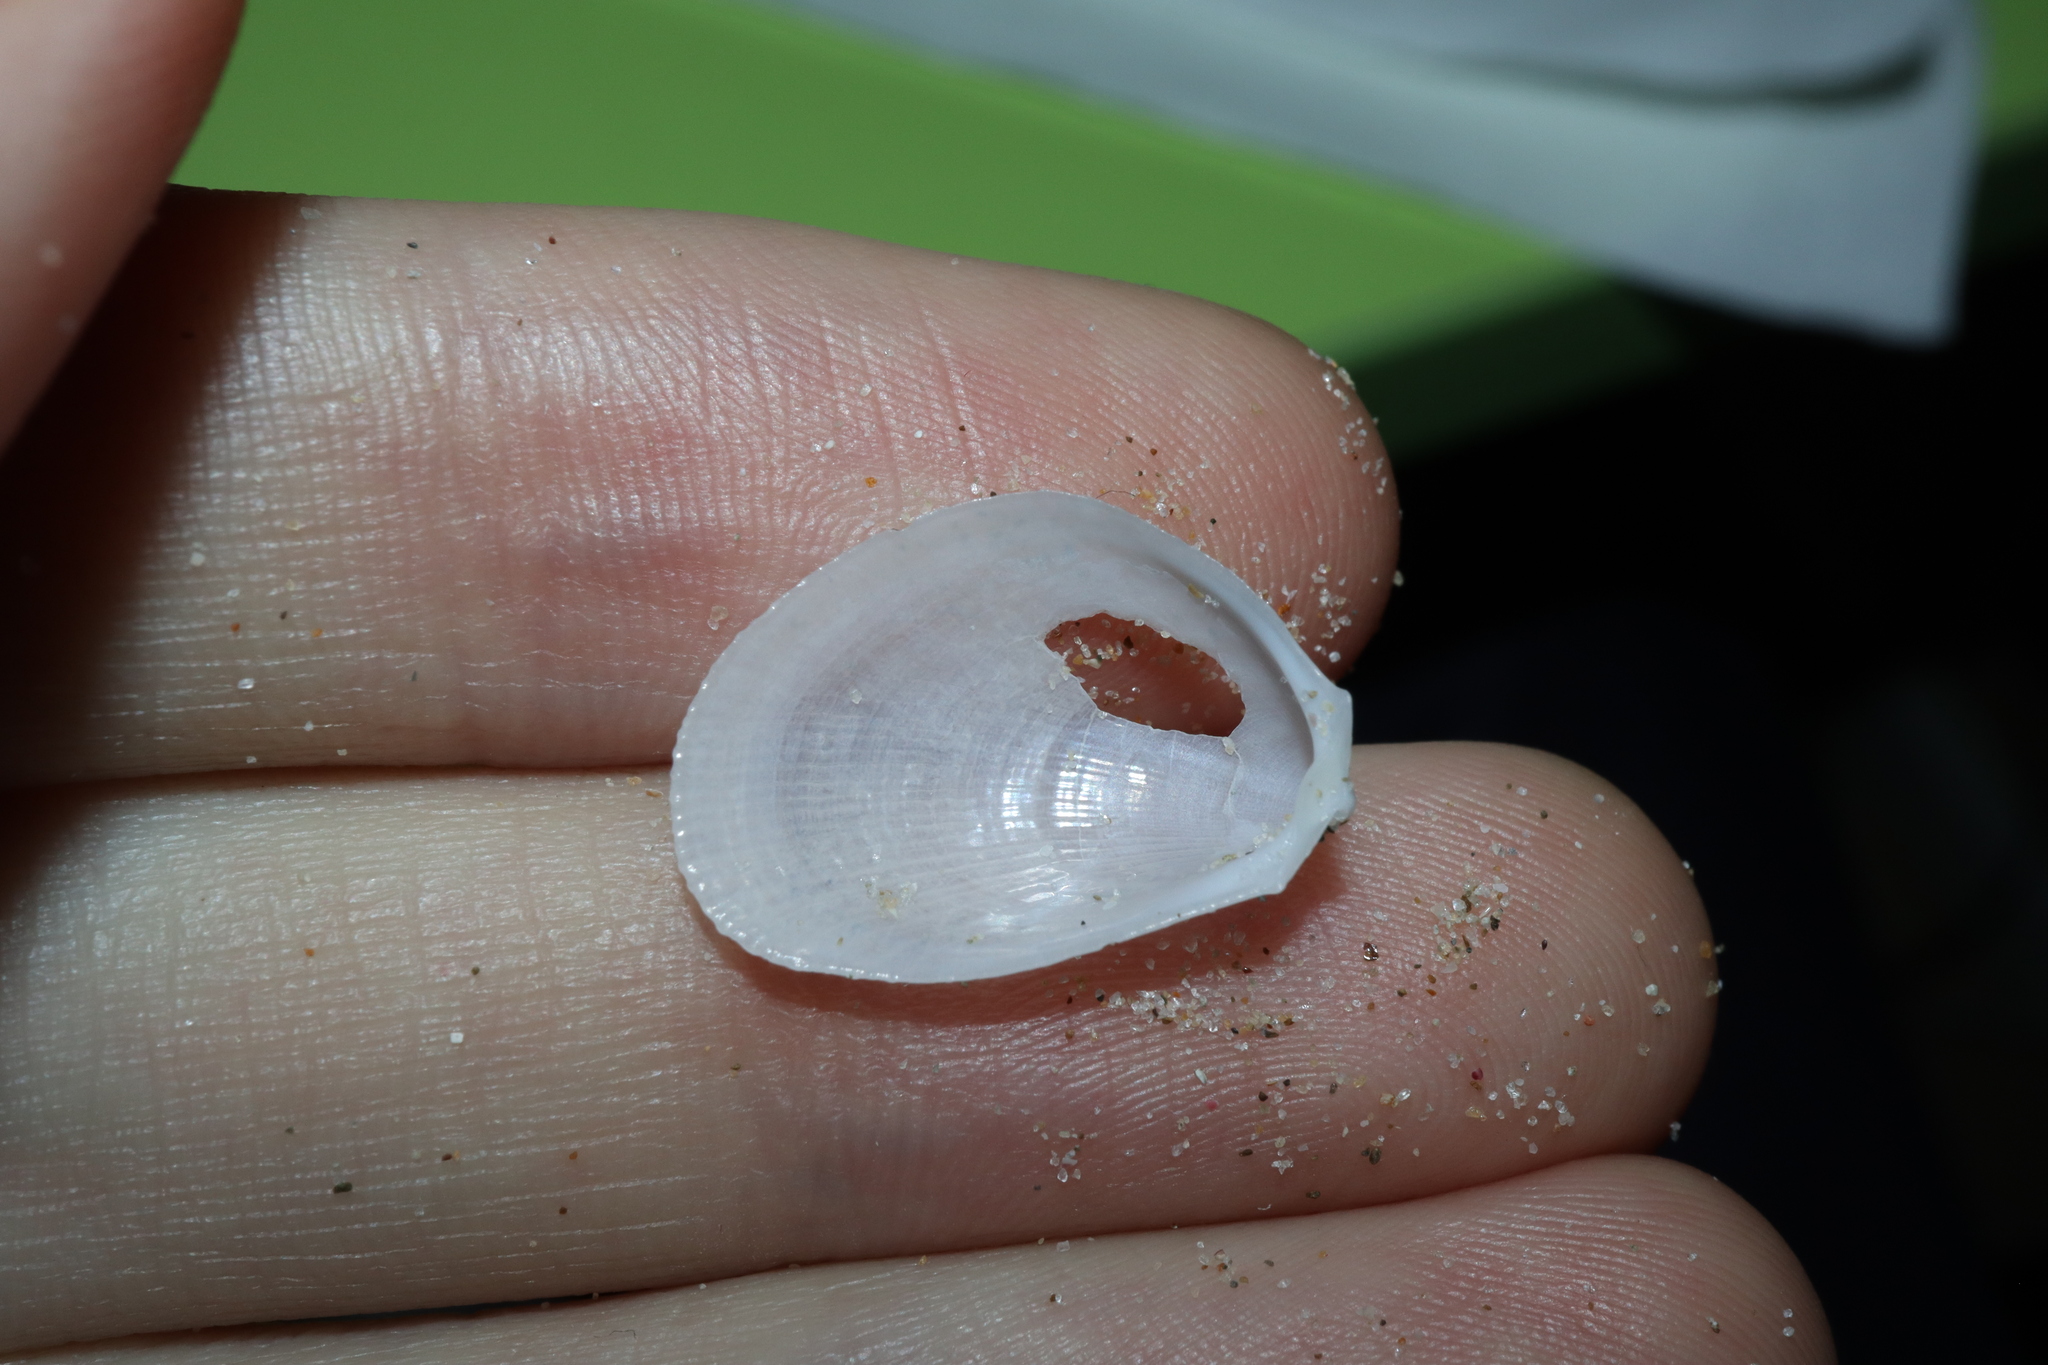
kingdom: Animalia
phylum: Mollusca
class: Bivalvia
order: Limida
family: Limidae
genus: Limaria
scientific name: Limaria orientalis
